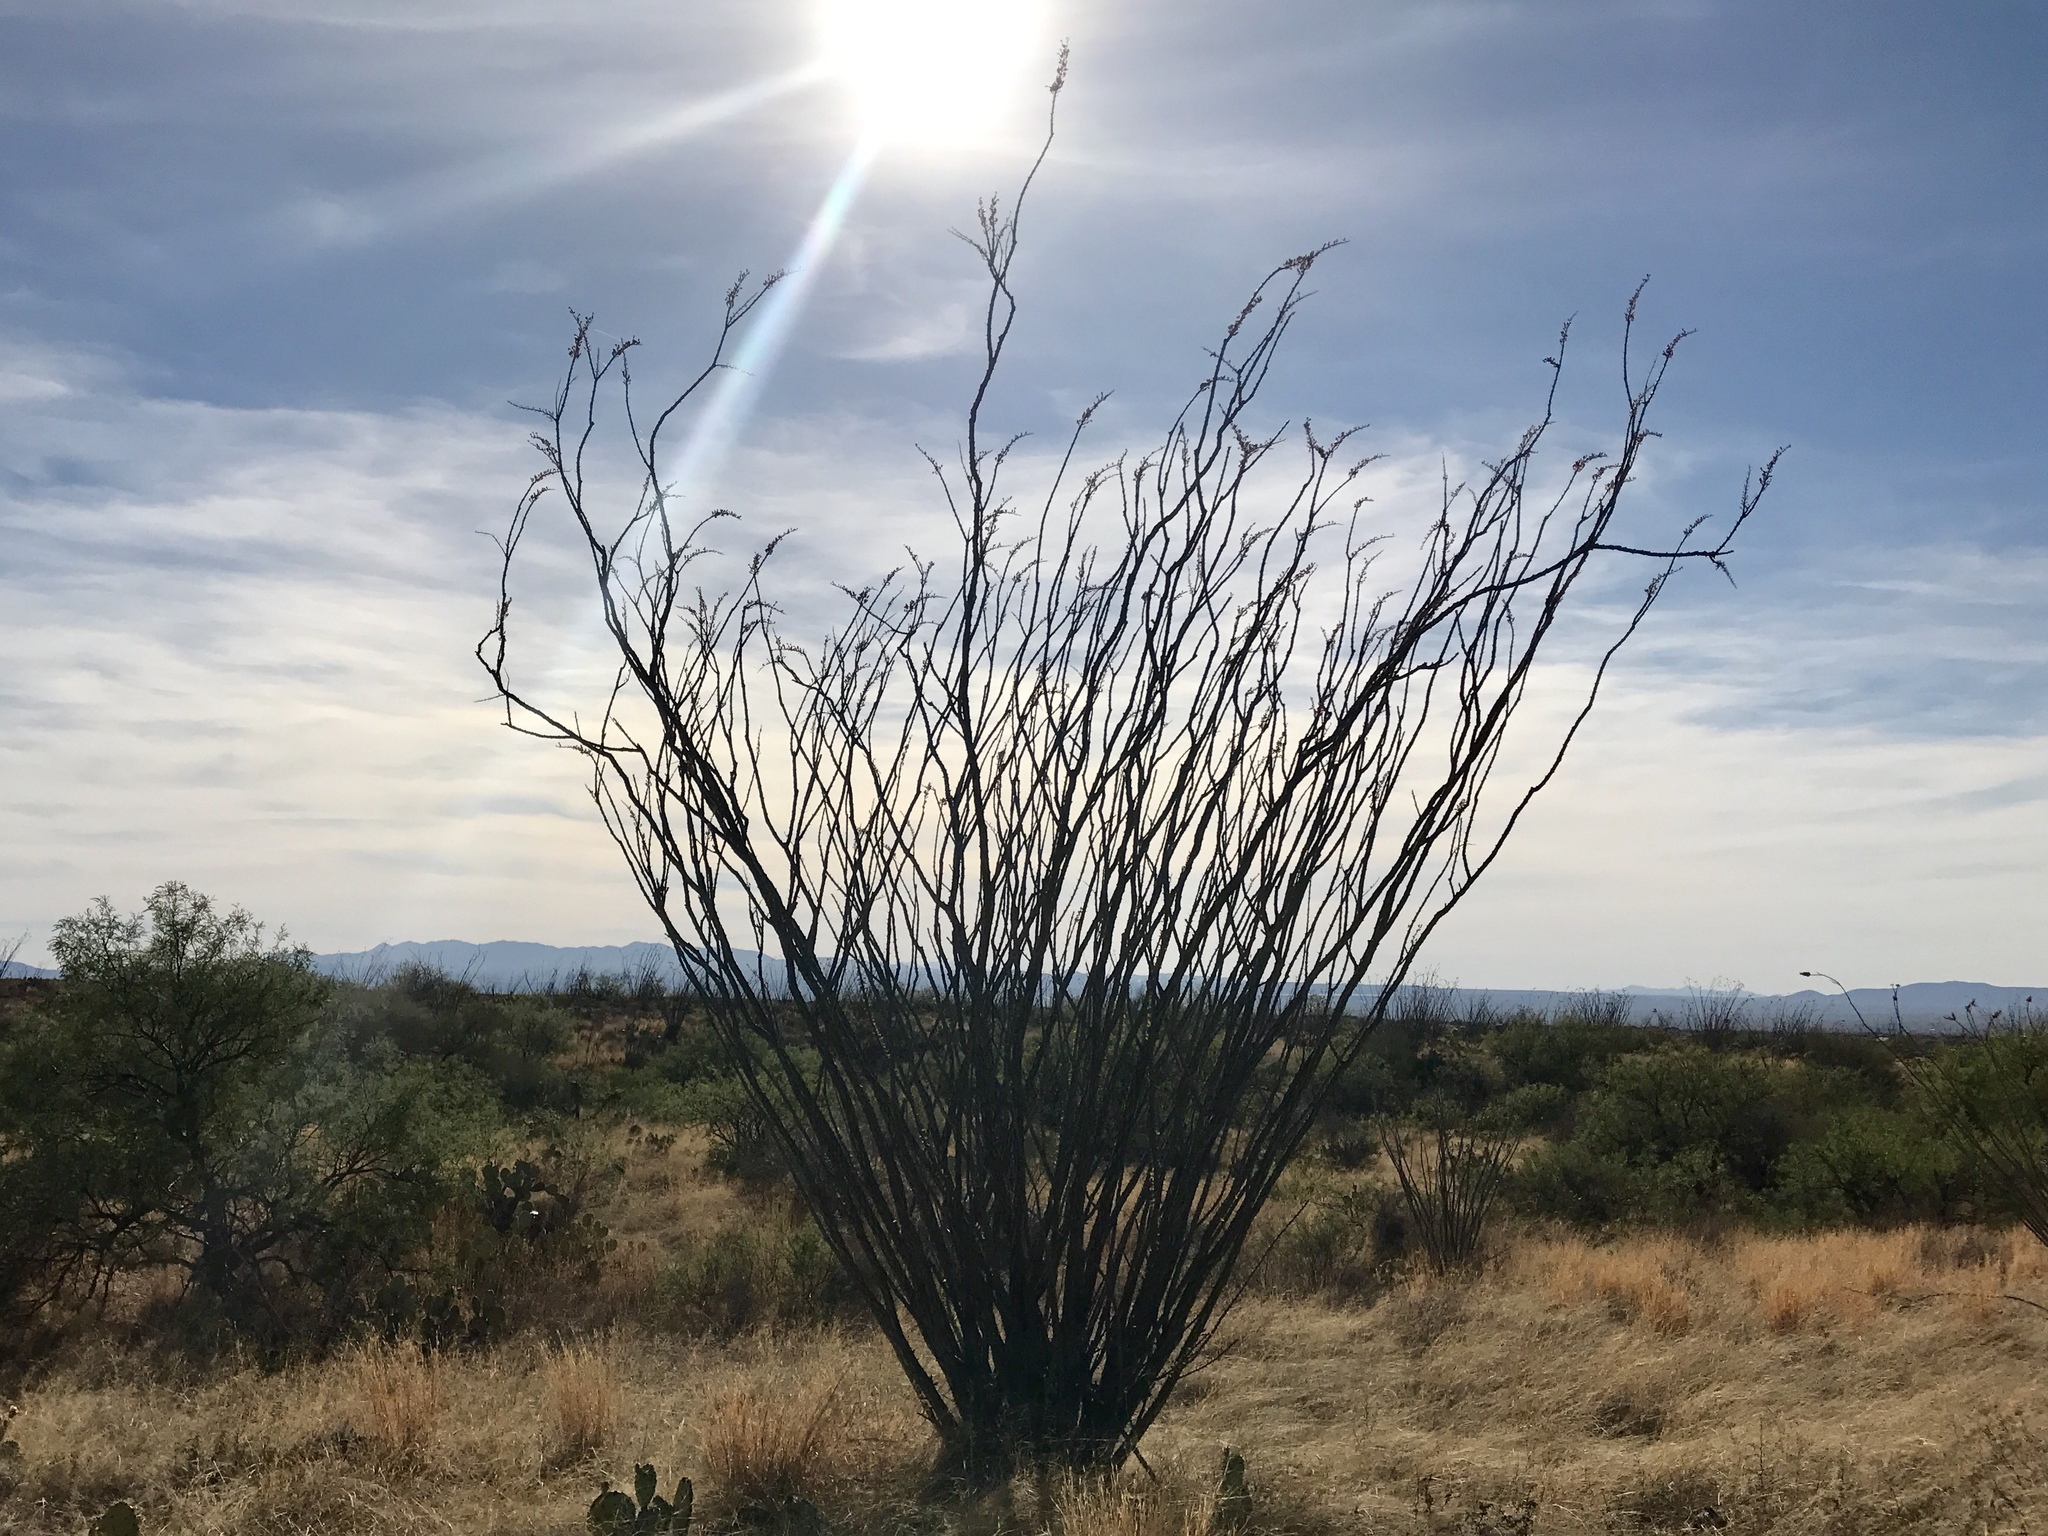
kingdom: Plantae
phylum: Tracheophyta
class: Magnoliopsida
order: Ericales
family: Fouquieriaceae
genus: Fouquieria
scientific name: Fouquieria splendens
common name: Vine-cactus
